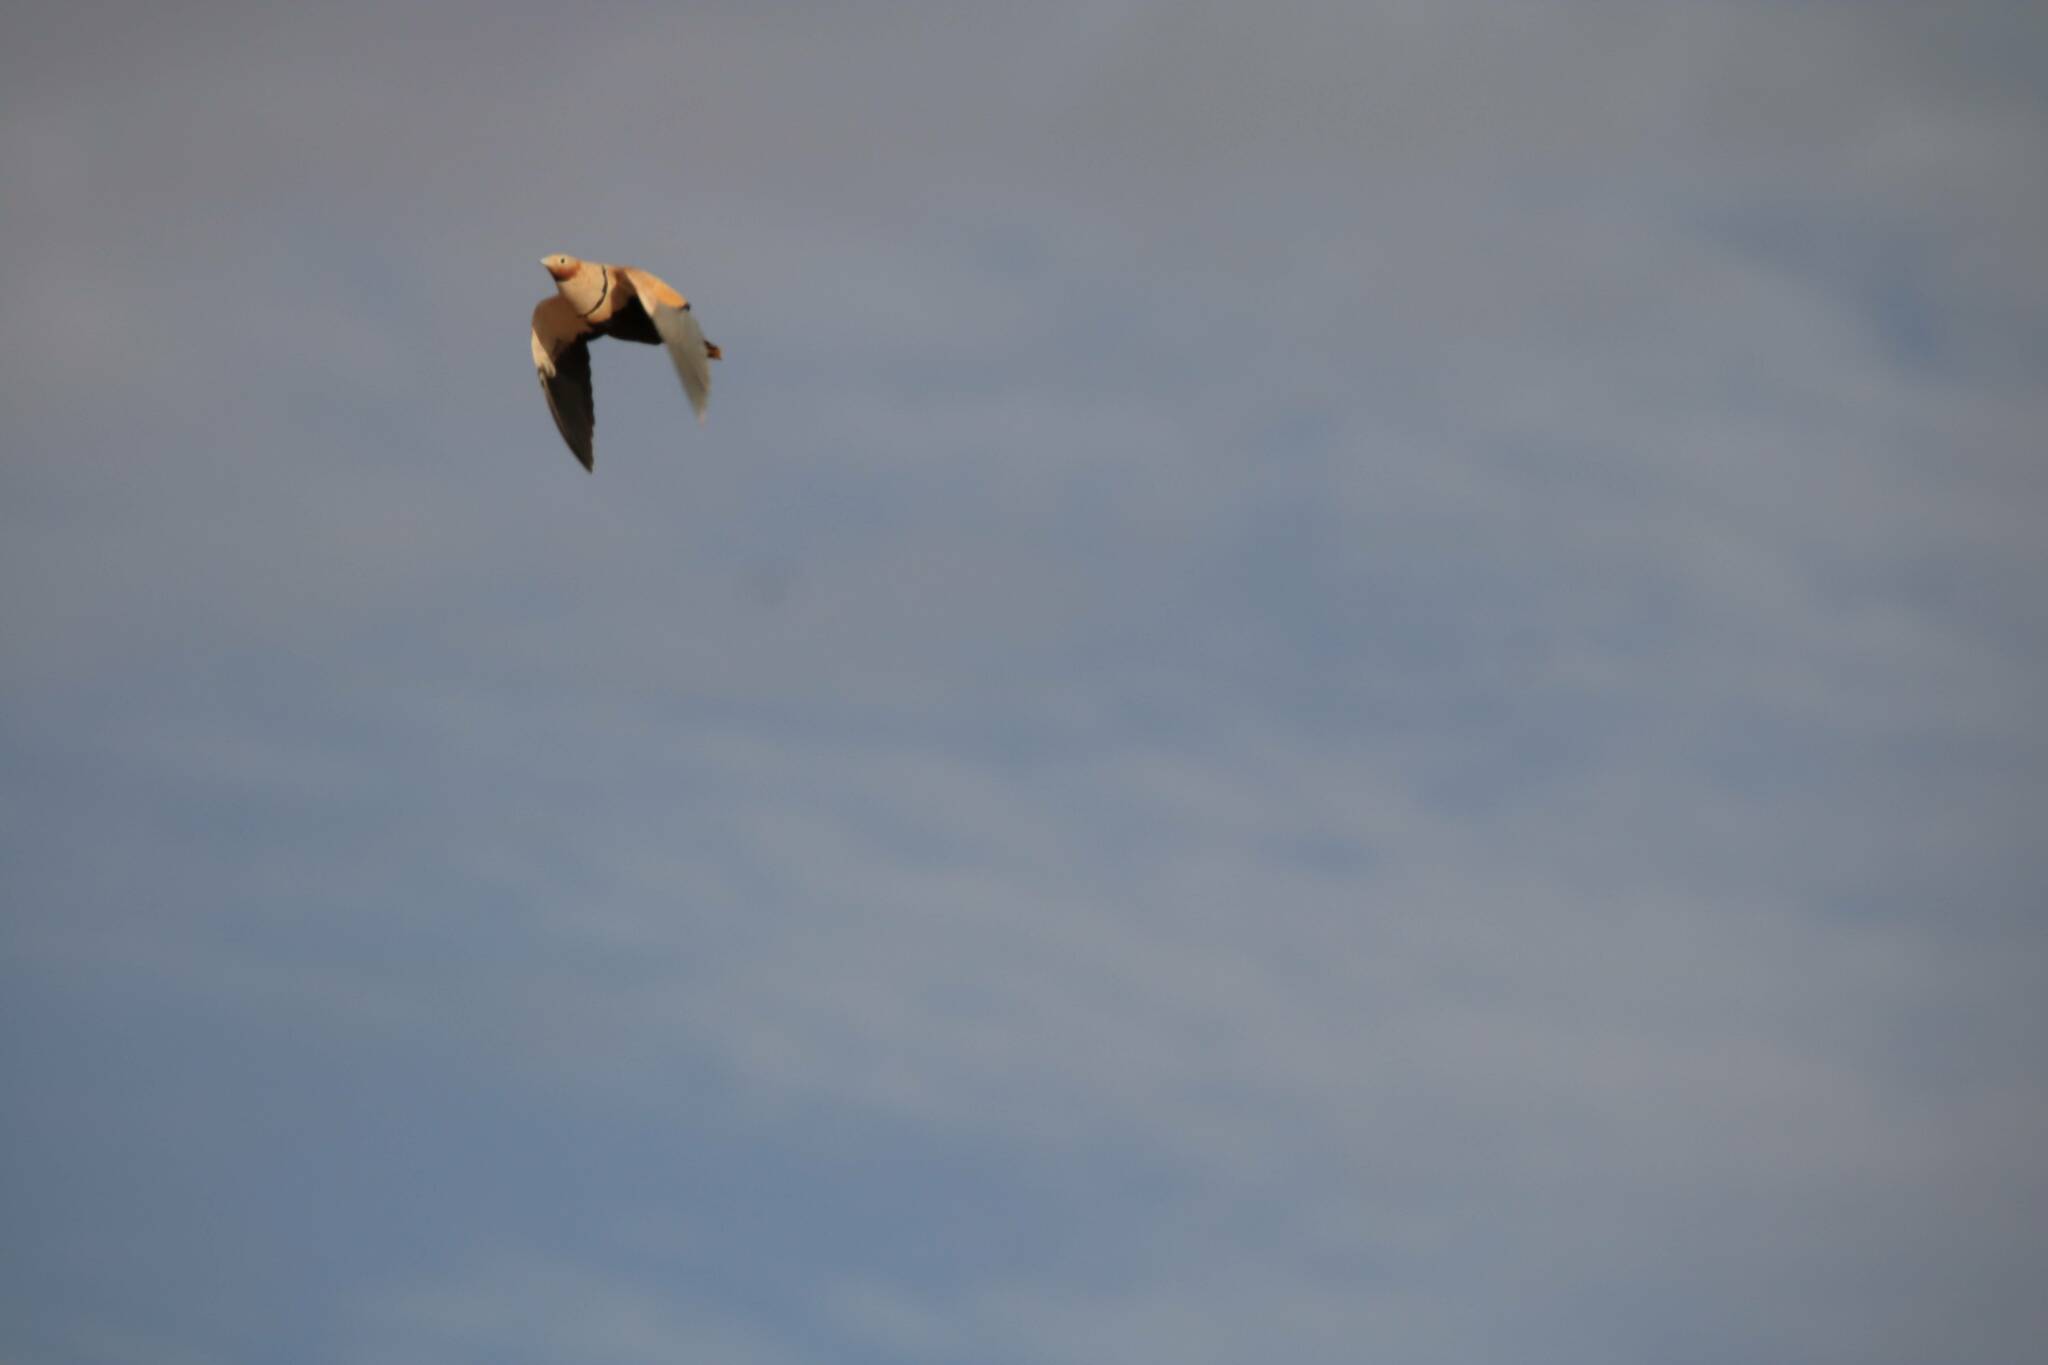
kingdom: Animalia
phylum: Chordata
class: Aves
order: Pteroclidiformes
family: Pteroclididae
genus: Pterocles
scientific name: Pterocles orientalis
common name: Black-bellied sandgrouse
